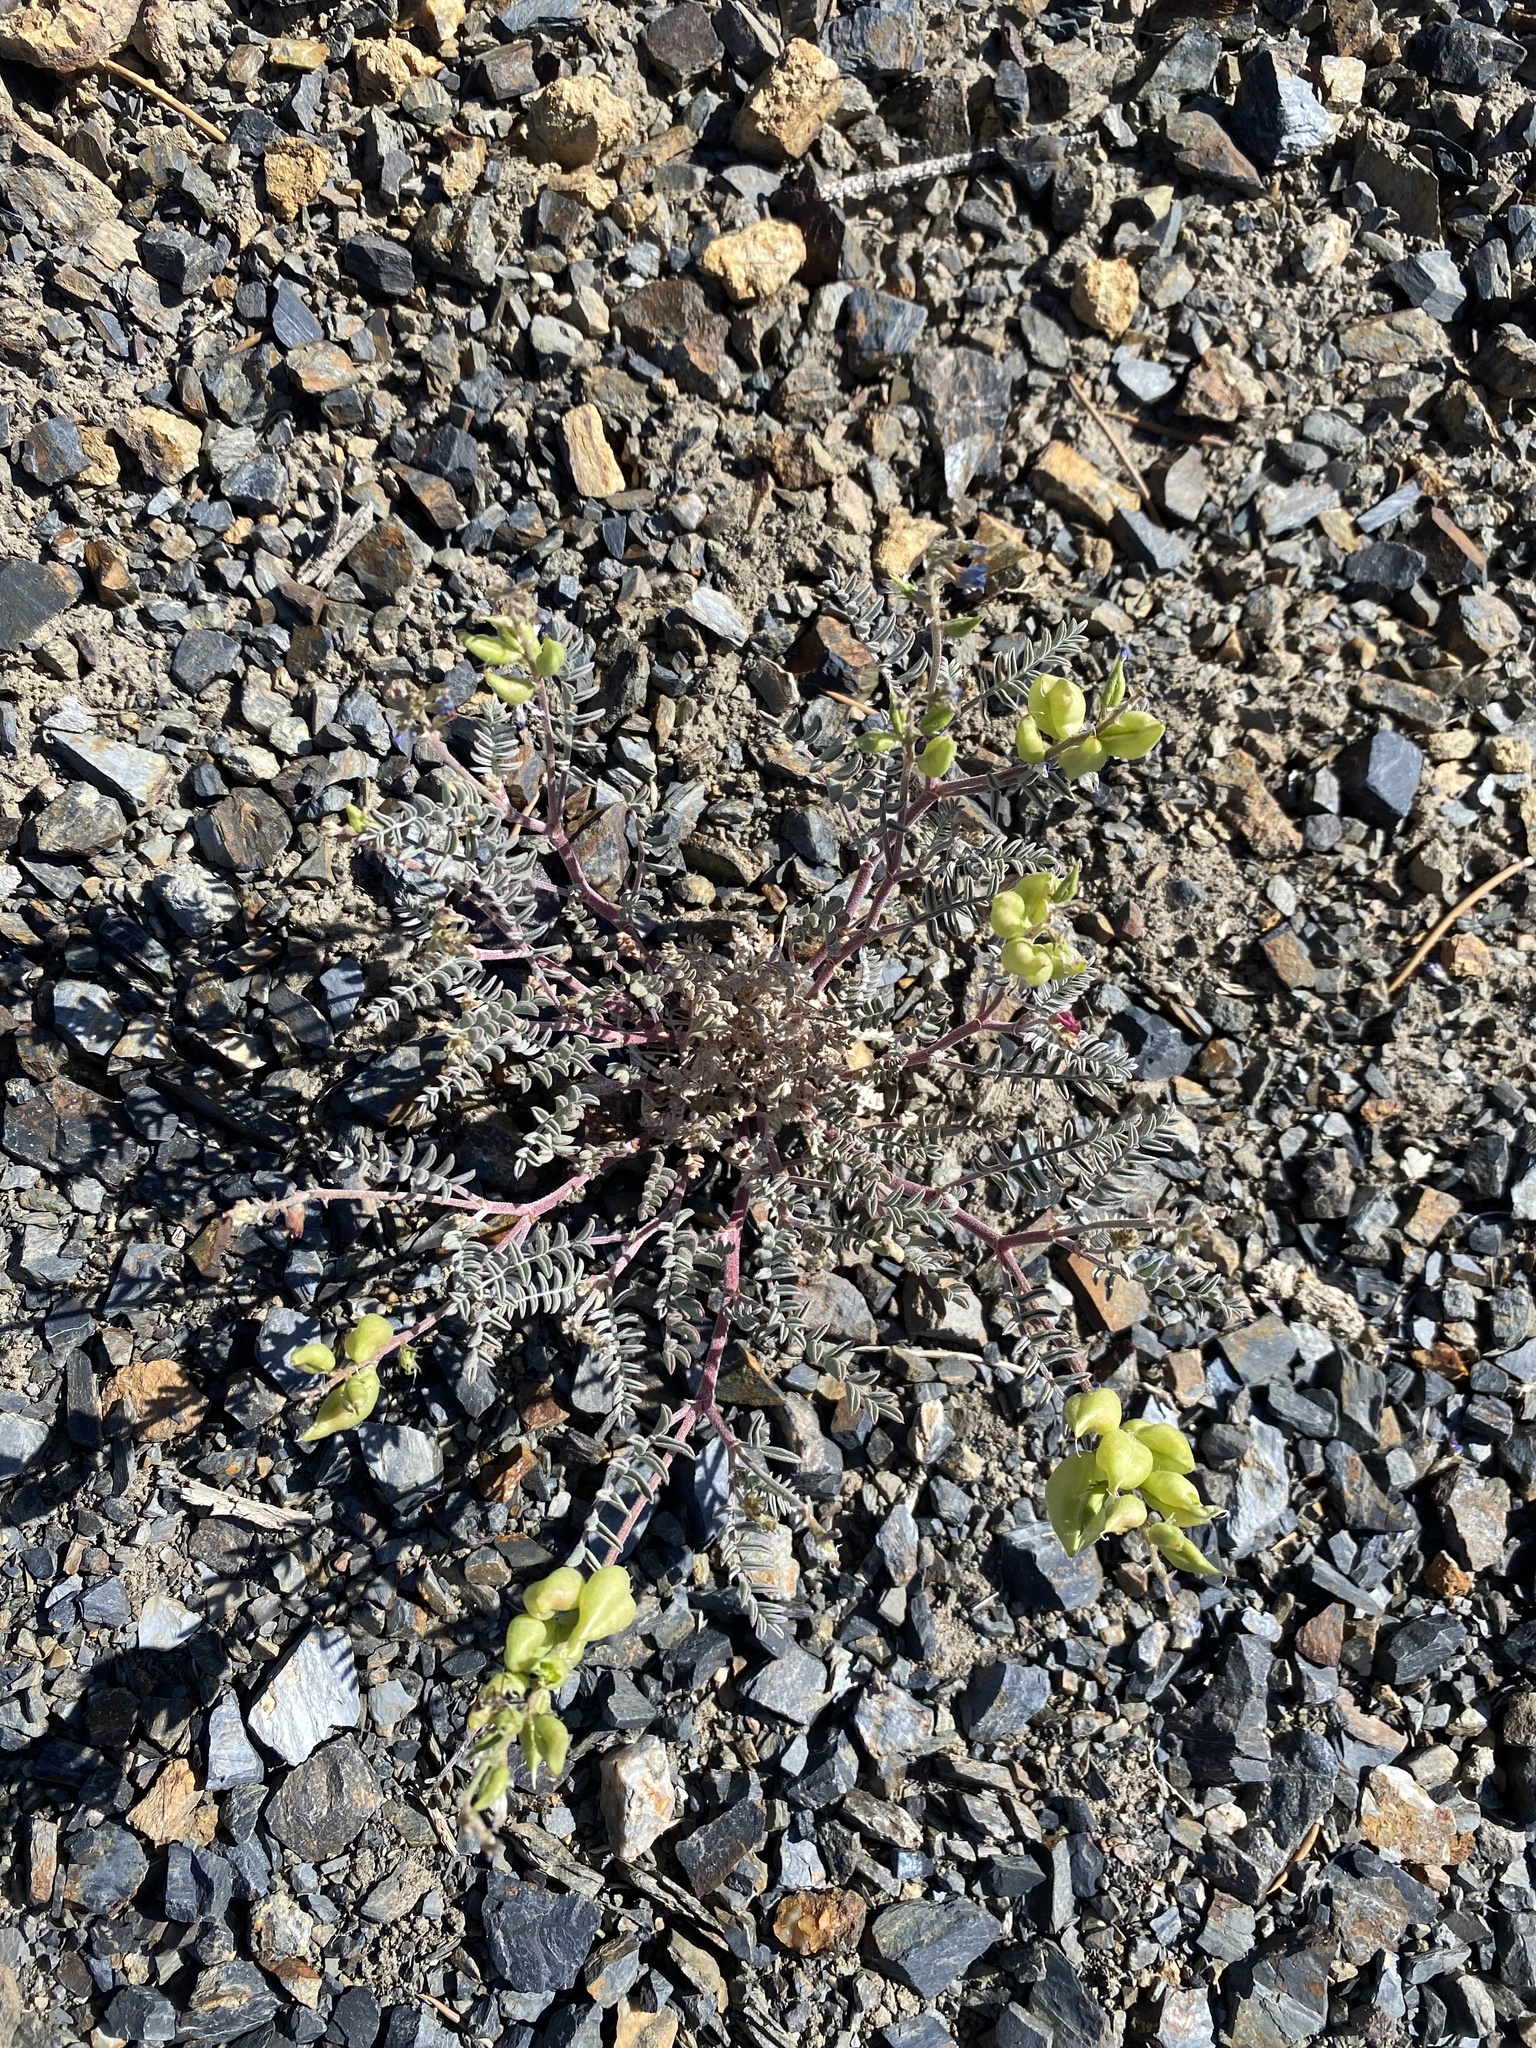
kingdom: Plantae
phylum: Tracheophyta
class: Magnoliopsida
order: Fabales
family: Fabaceae
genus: Astragalus
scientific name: Astragalus lentiginosus
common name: Freckled milkvetch
